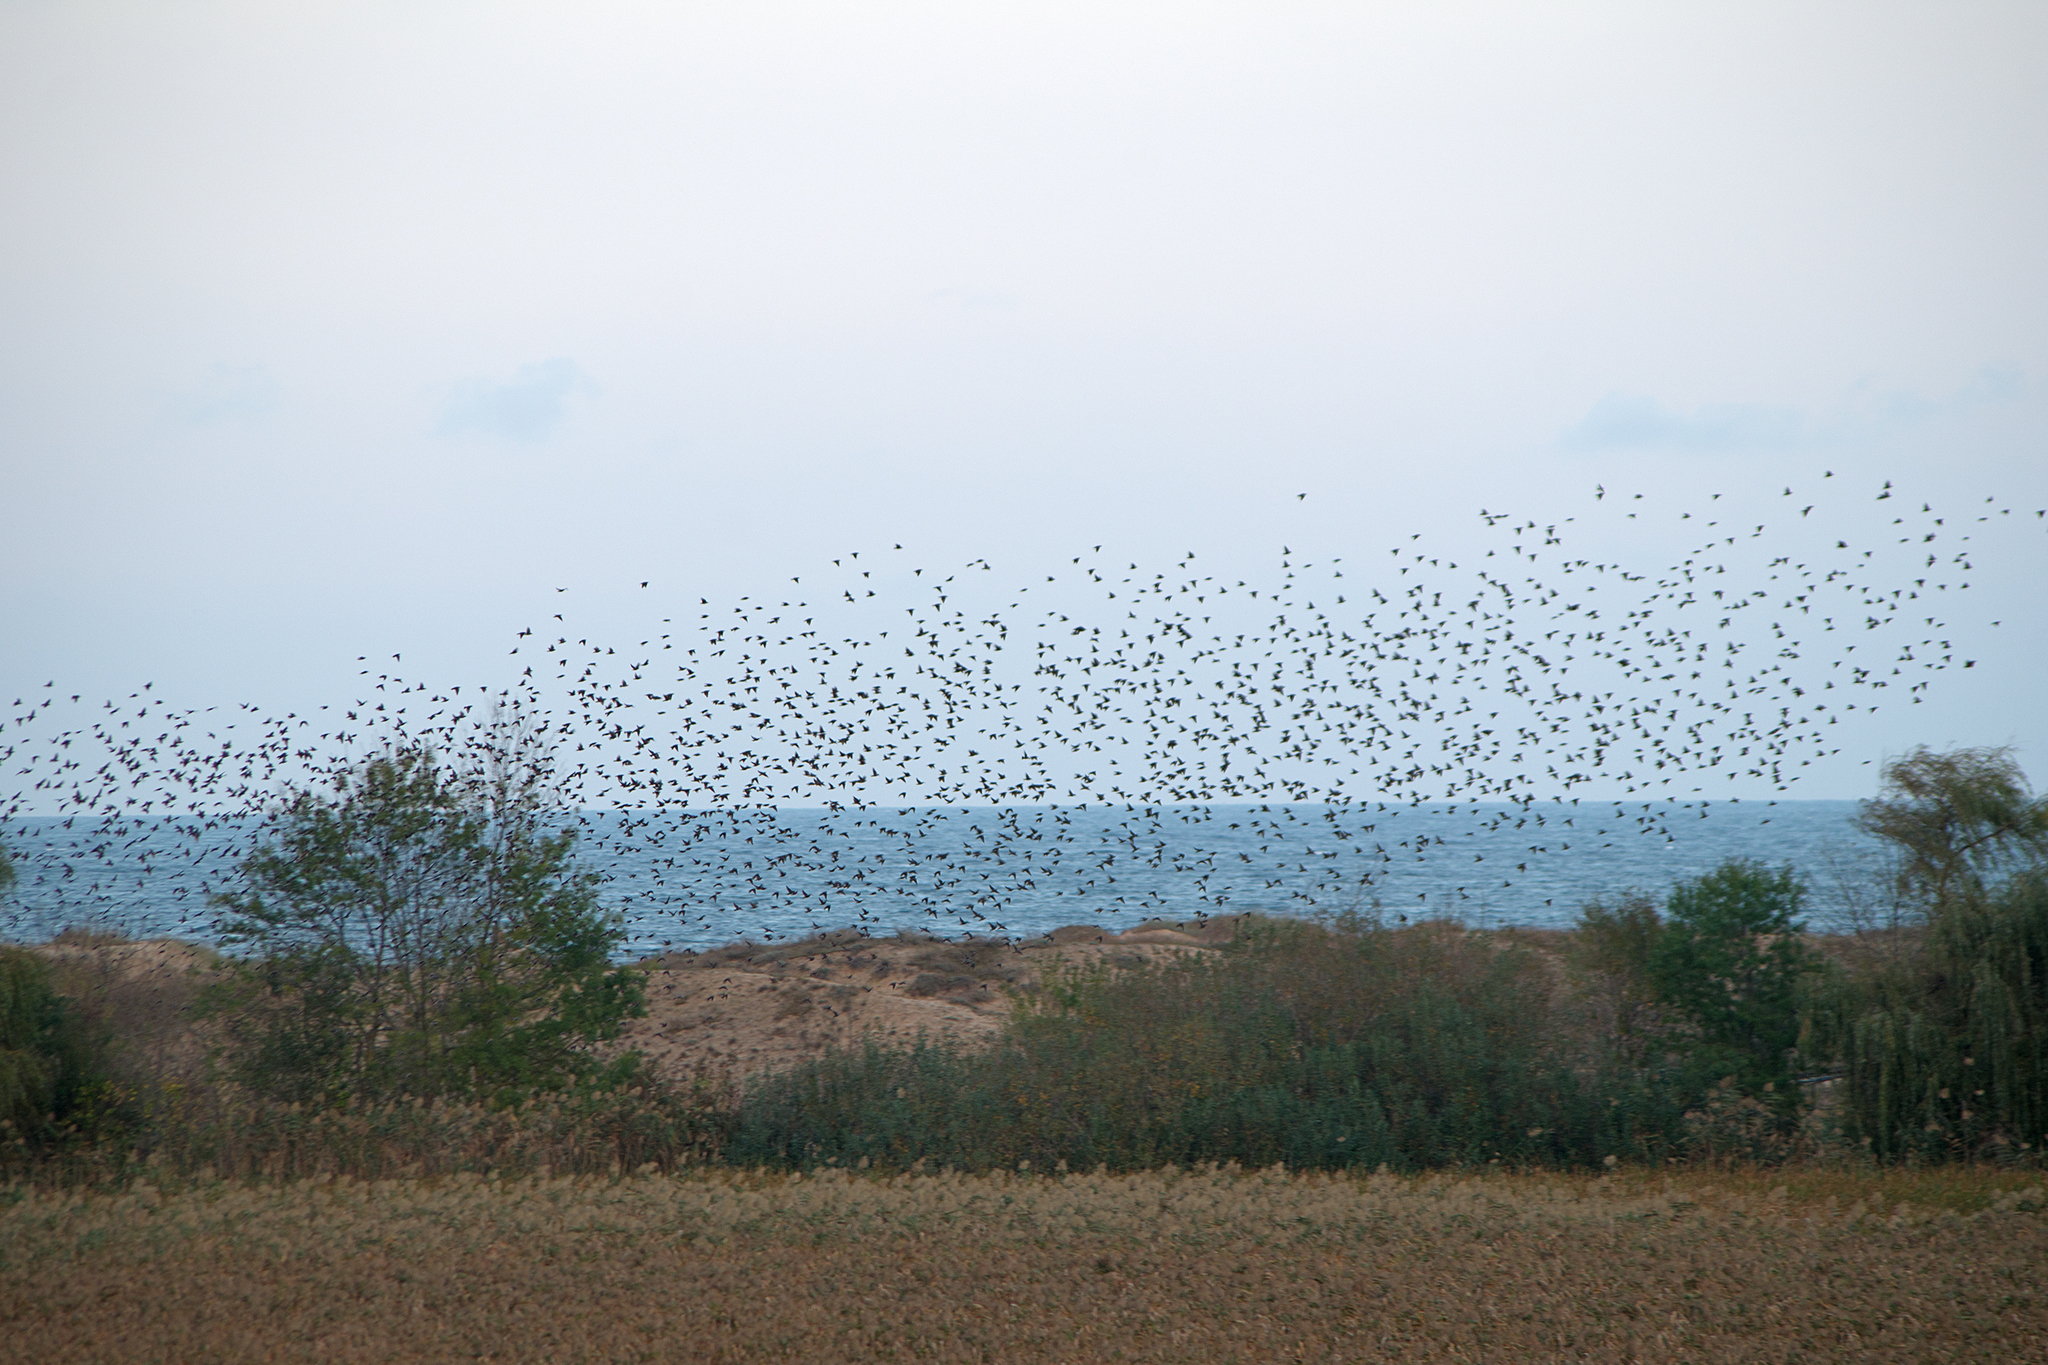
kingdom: Animalia
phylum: Chordata
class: Aves
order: Passeriformes
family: Sturnidae
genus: Sturnus
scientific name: Sturnus vulgaris
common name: Common starling
